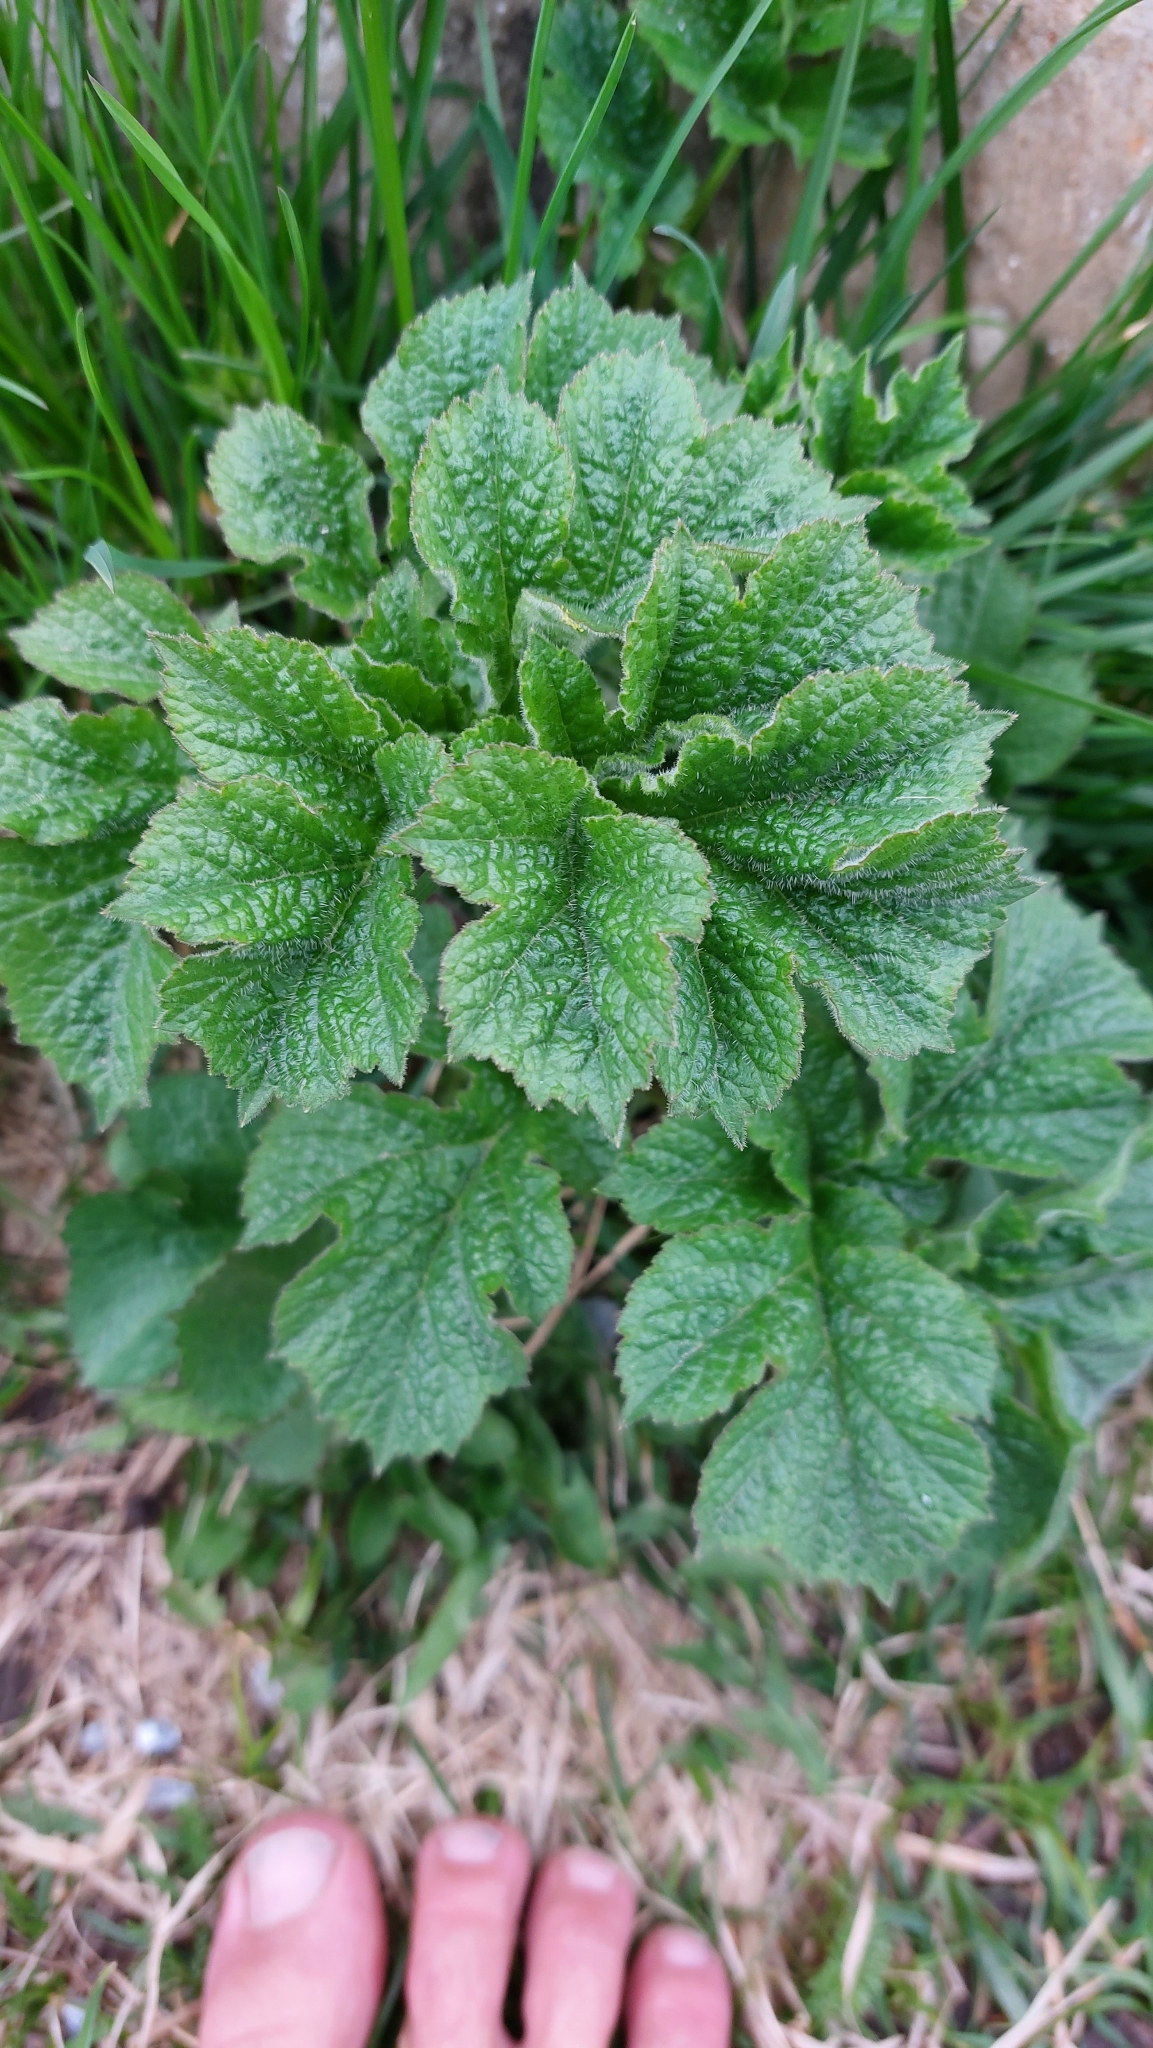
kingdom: Plantae
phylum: Tracheophyta
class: Magnoliopsida
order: Apiales
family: Apiaceae
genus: Heracleum
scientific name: Heracleum sphondylium
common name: Hogweed
